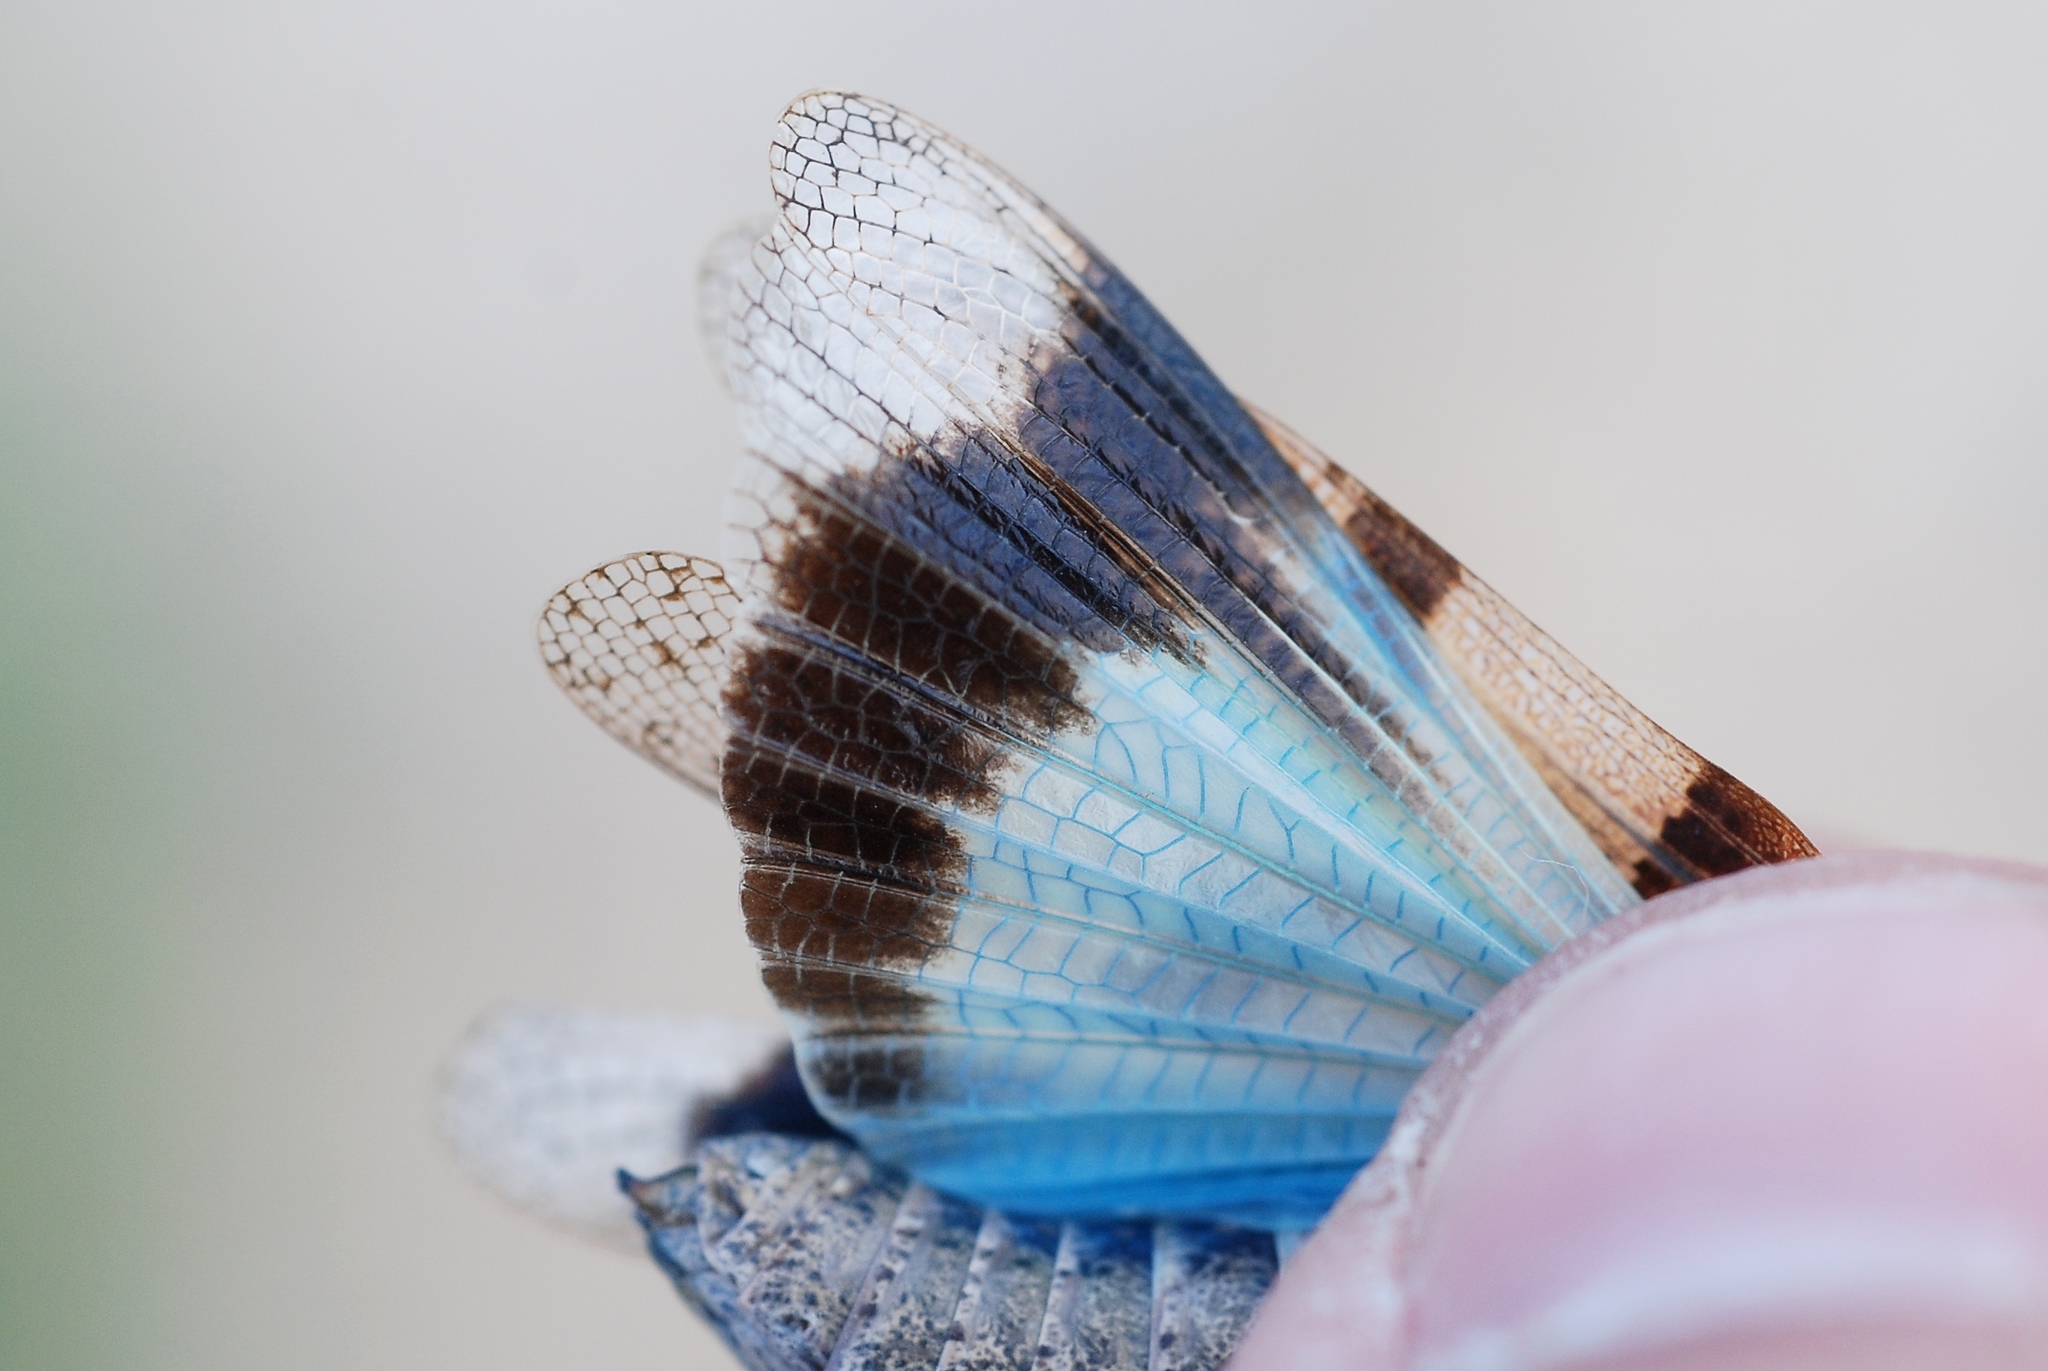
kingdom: Animalia
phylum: Arthropoda
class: Insecta
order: Orthoptera
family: Acrididae
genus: Oedipoda
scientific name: Oedipoda caerulescens
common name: Blue-winged grasshopper
